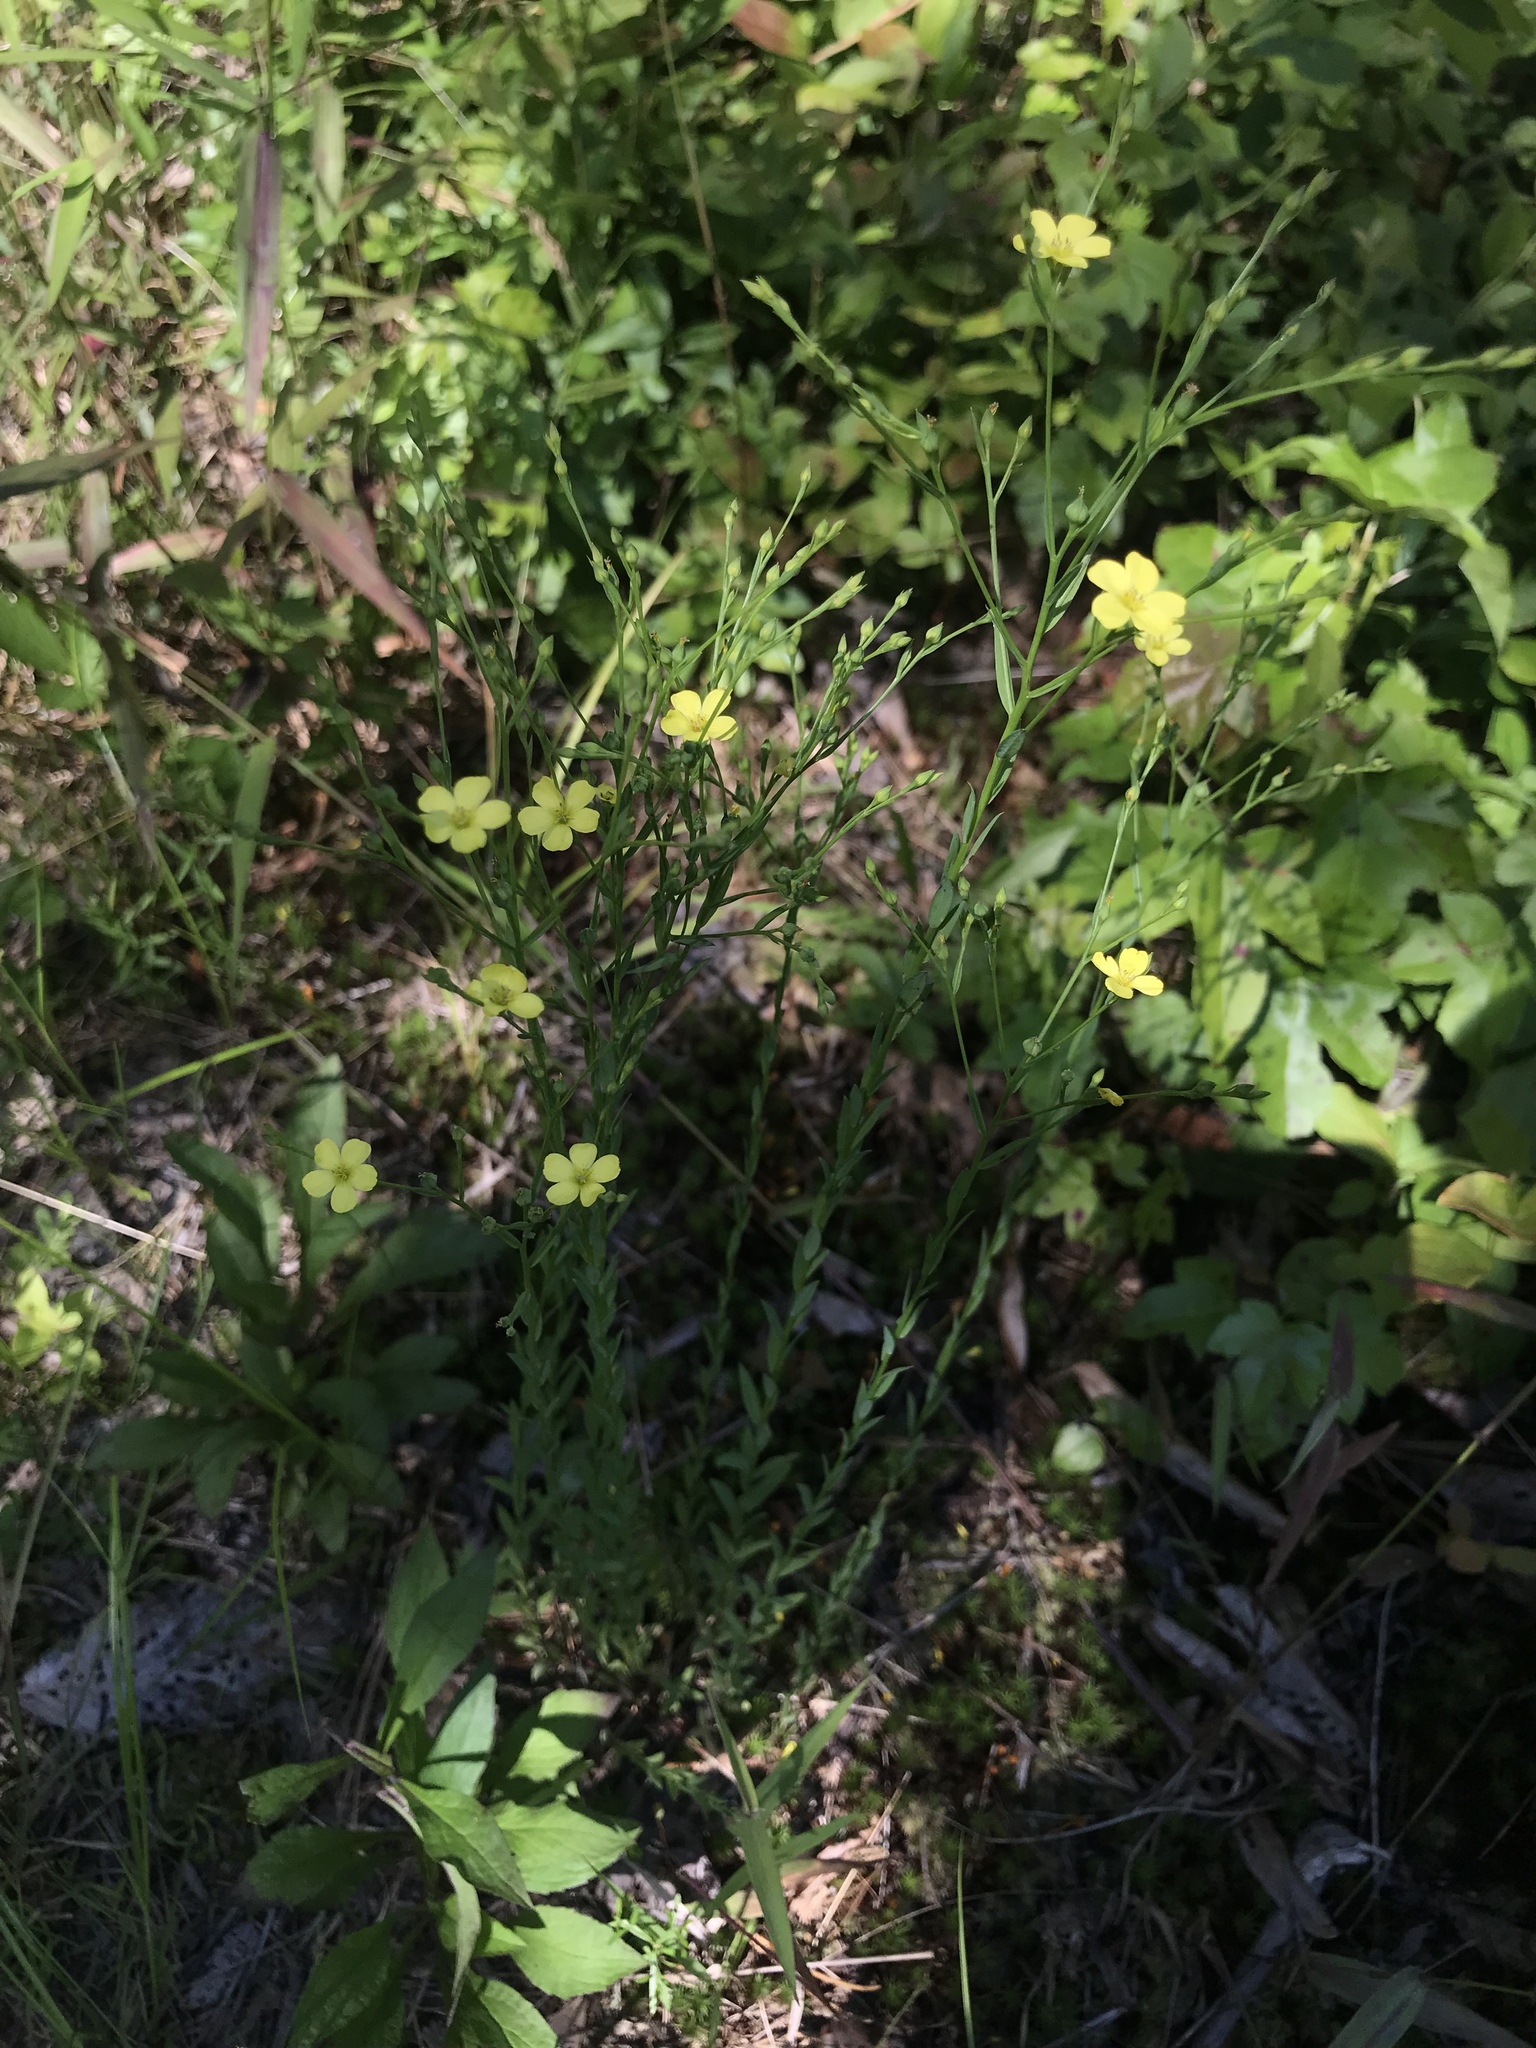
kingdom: Plantae
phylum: Tracheophyta
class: Magnoliopsida
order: Malpighiales
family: Linaceae
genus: Linum
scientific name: Linum medium
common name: Stiff yellow flax
